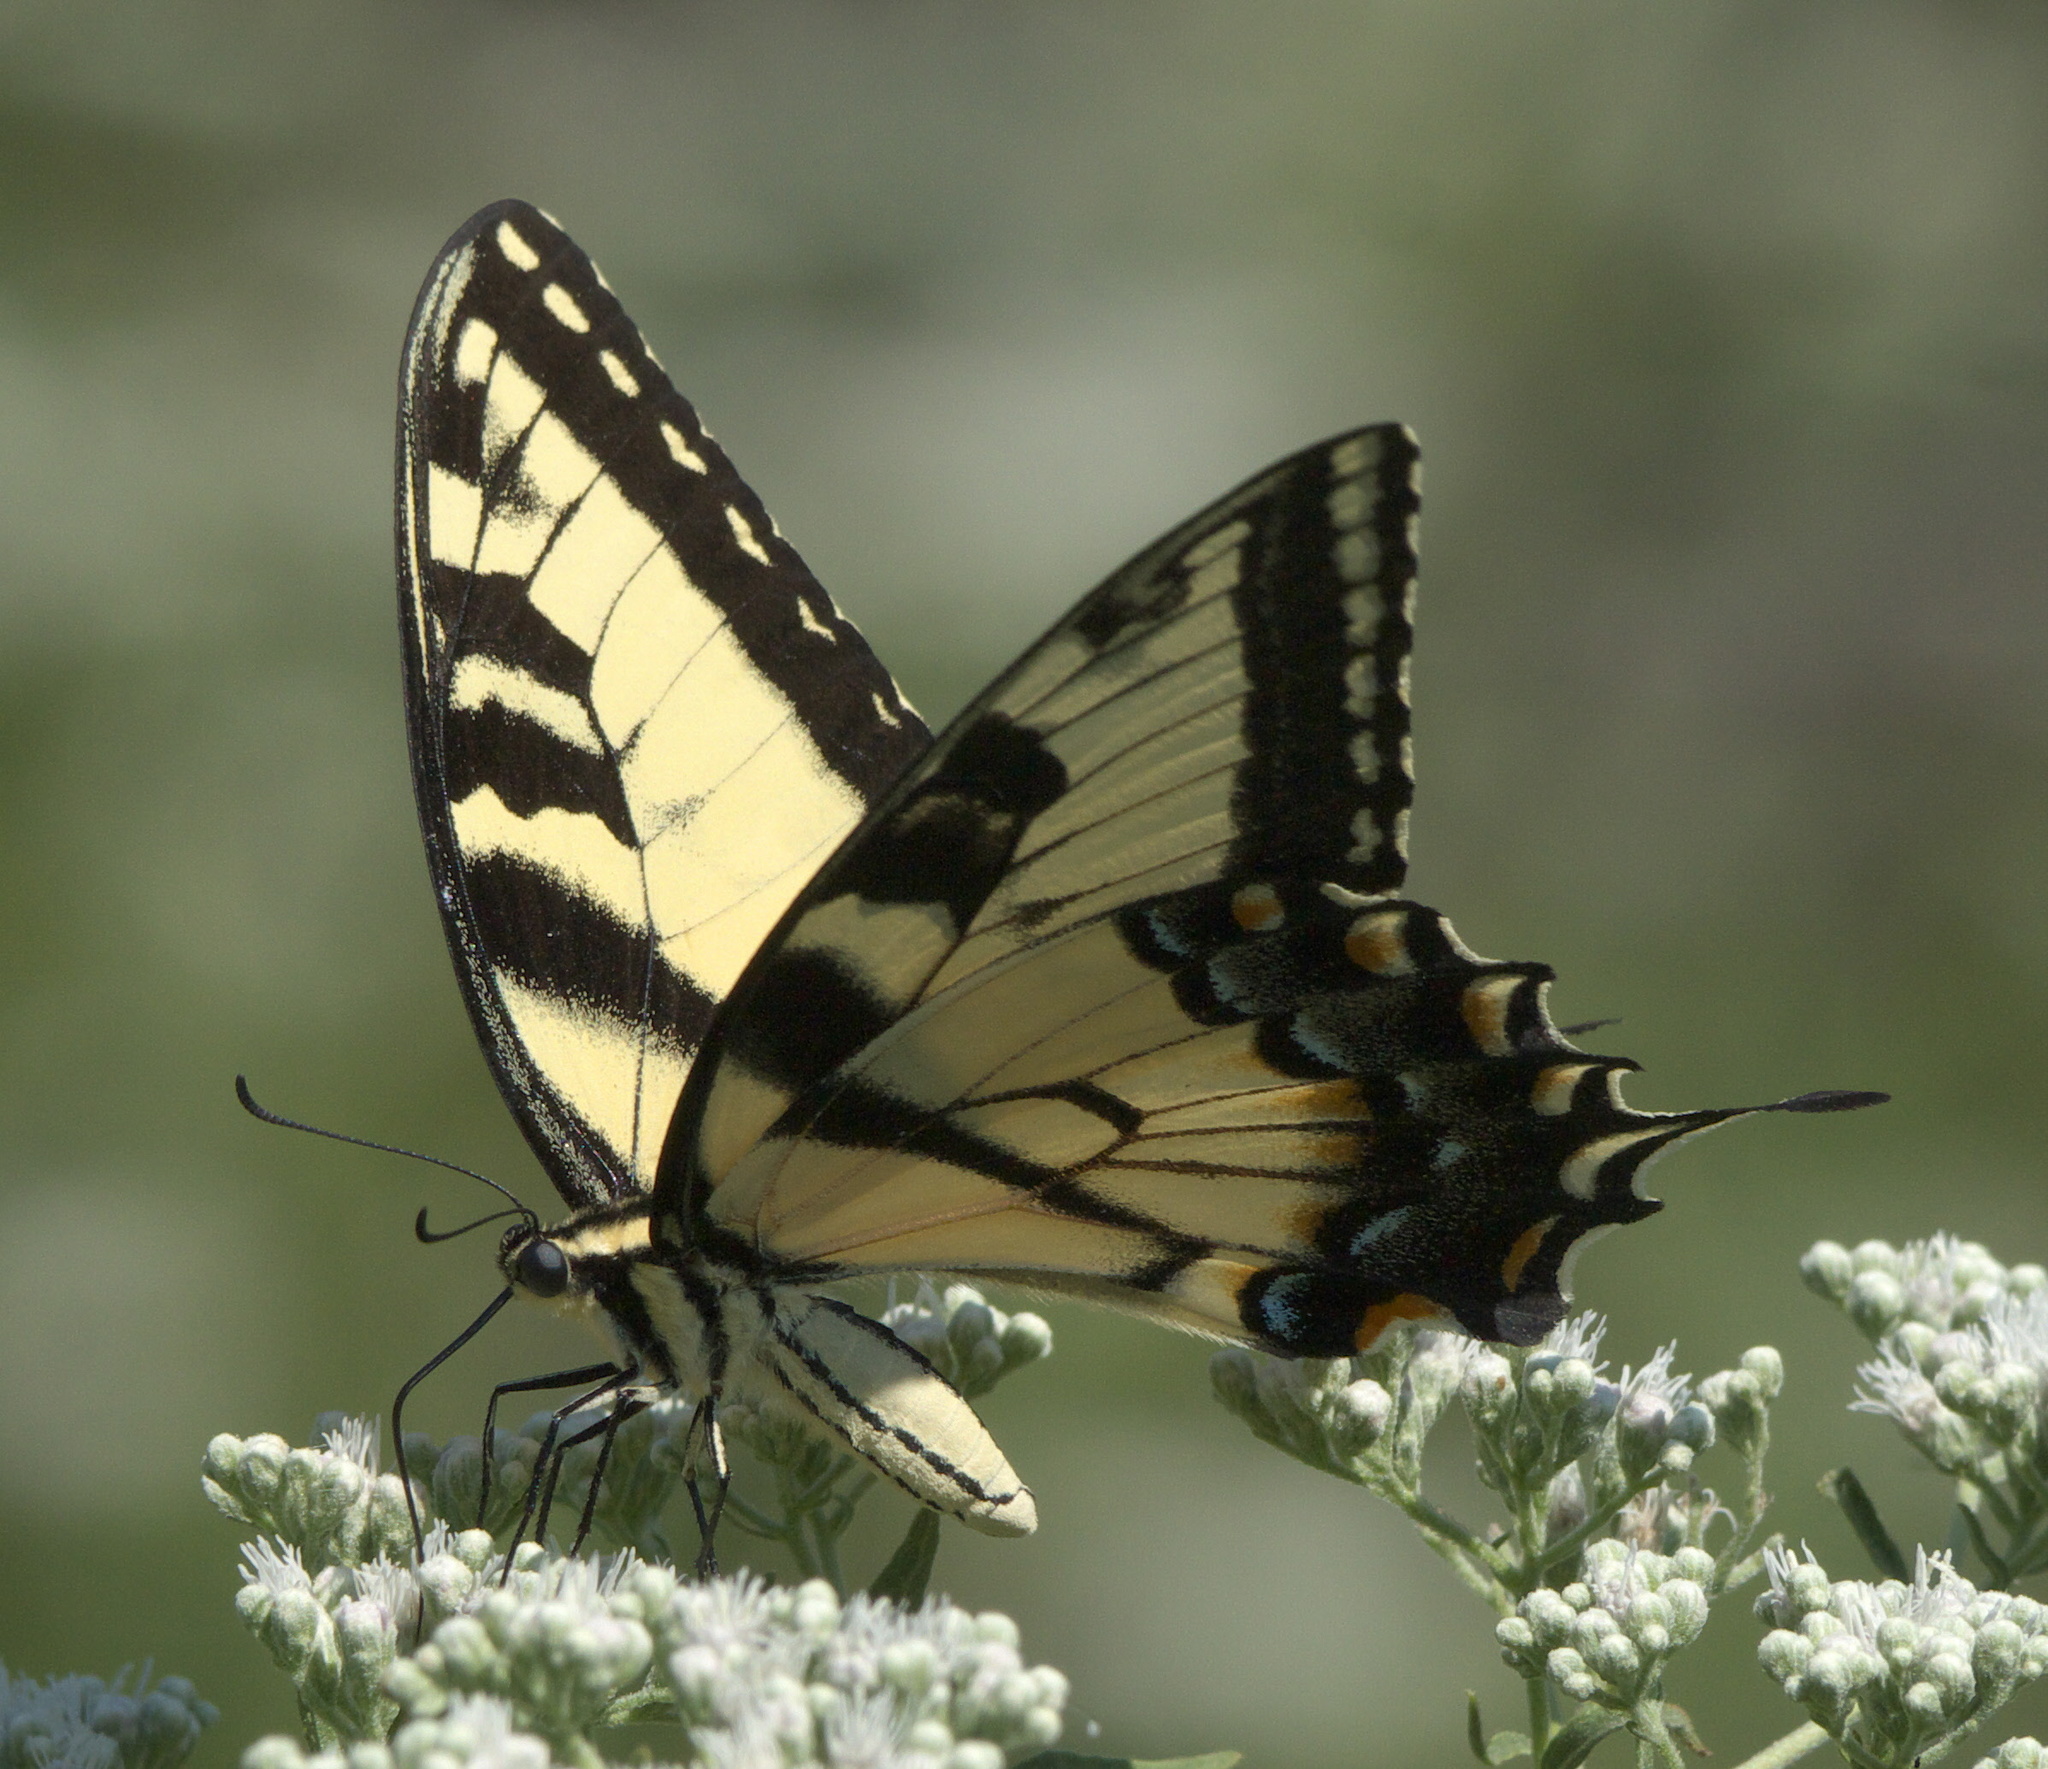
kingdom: Animalia
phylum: Arthropoda
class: Insecta
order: Lepidoptera
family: Papilionidae
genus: Papilio
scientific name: Papilio glaucus
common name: Tiger swallowtail
